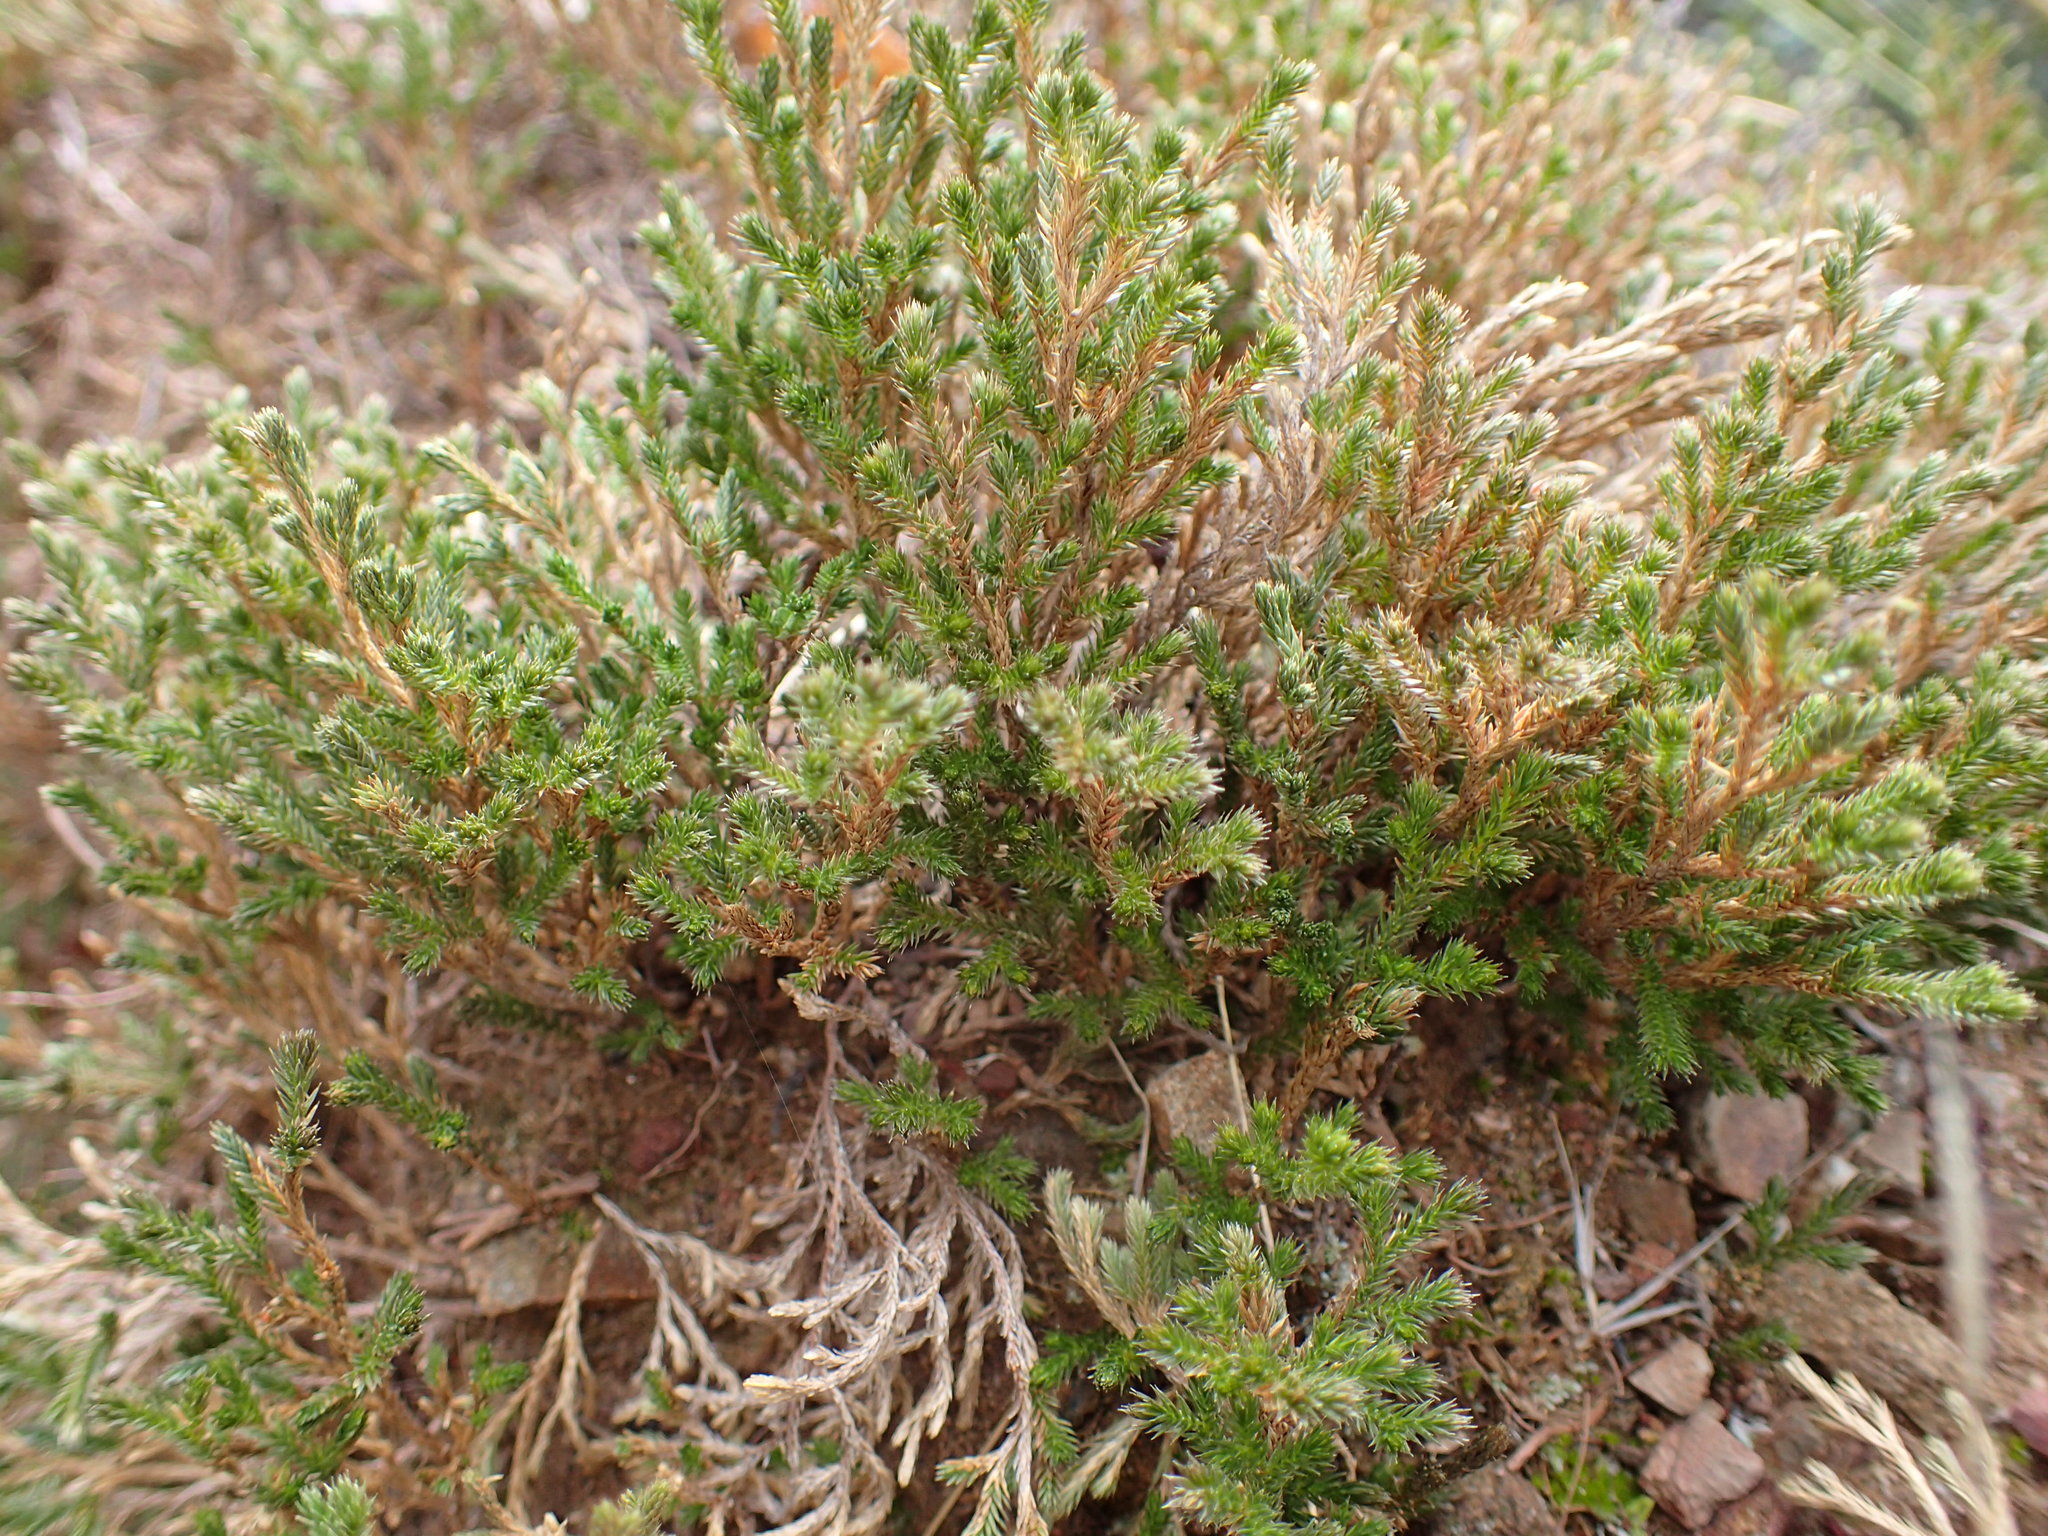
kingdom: Plantae
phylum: Tracheophyta
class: Lycopodiopsida
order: Selaginellales
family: Selaginellaceae
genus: Selaginella
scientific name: Selaginella bigelovii
